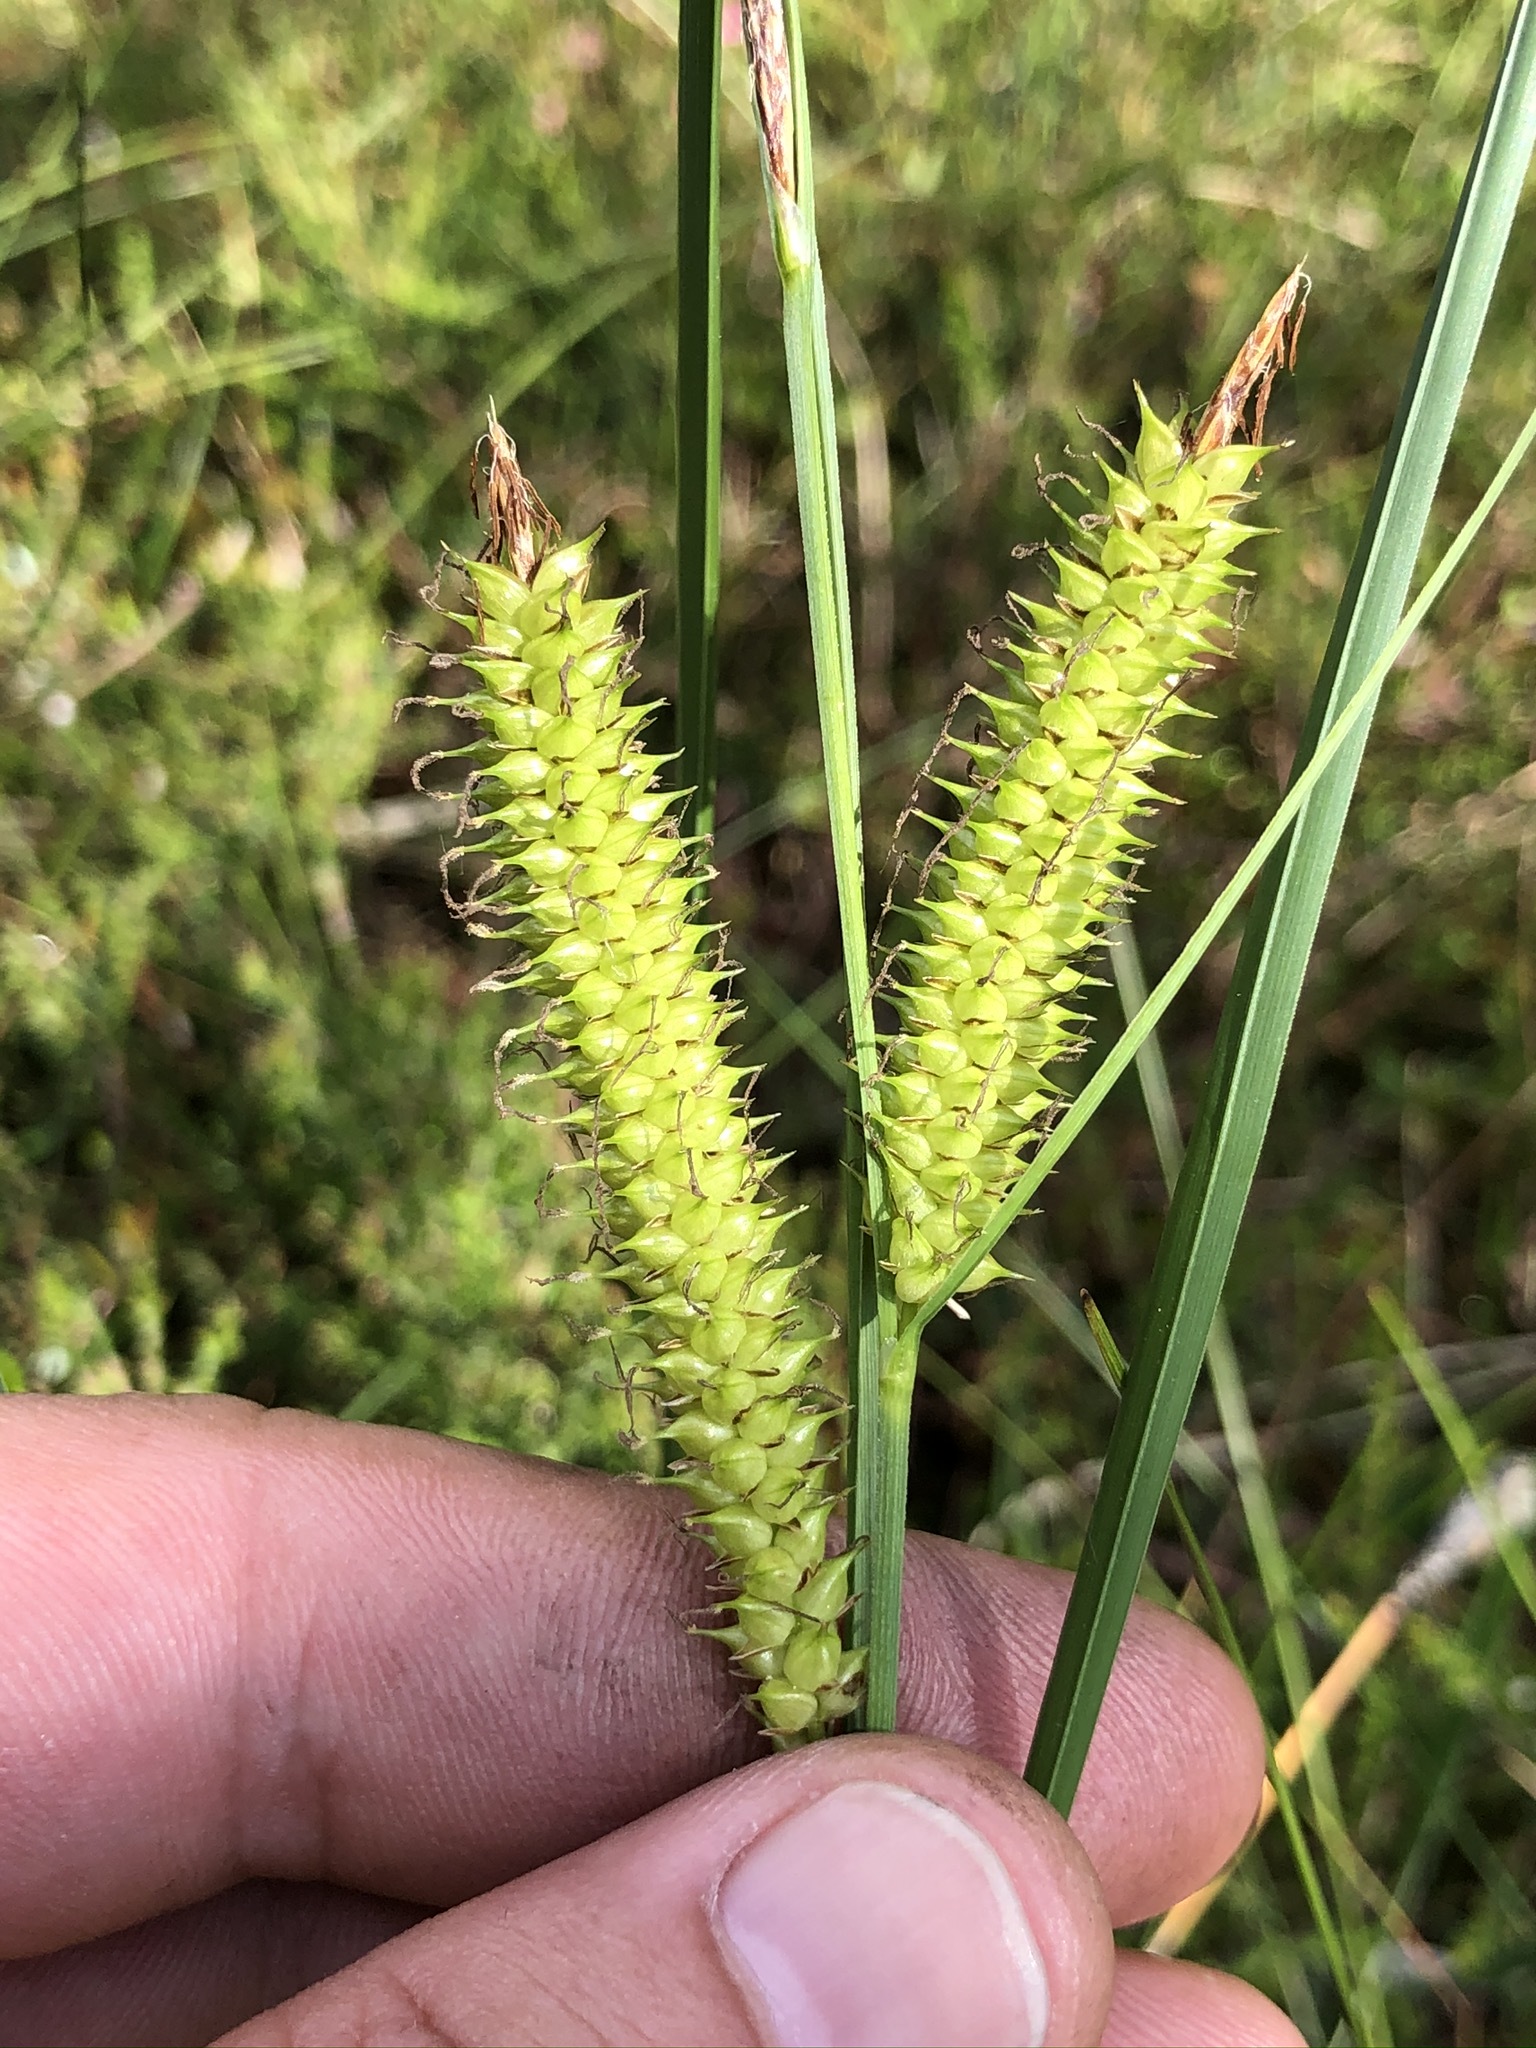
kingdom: Plantae
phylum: Tracheophyta
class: Liliopsida
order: Poales
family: Cyperaceae
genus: Carex
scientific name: Carex rostrata
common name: Bottle sedge
